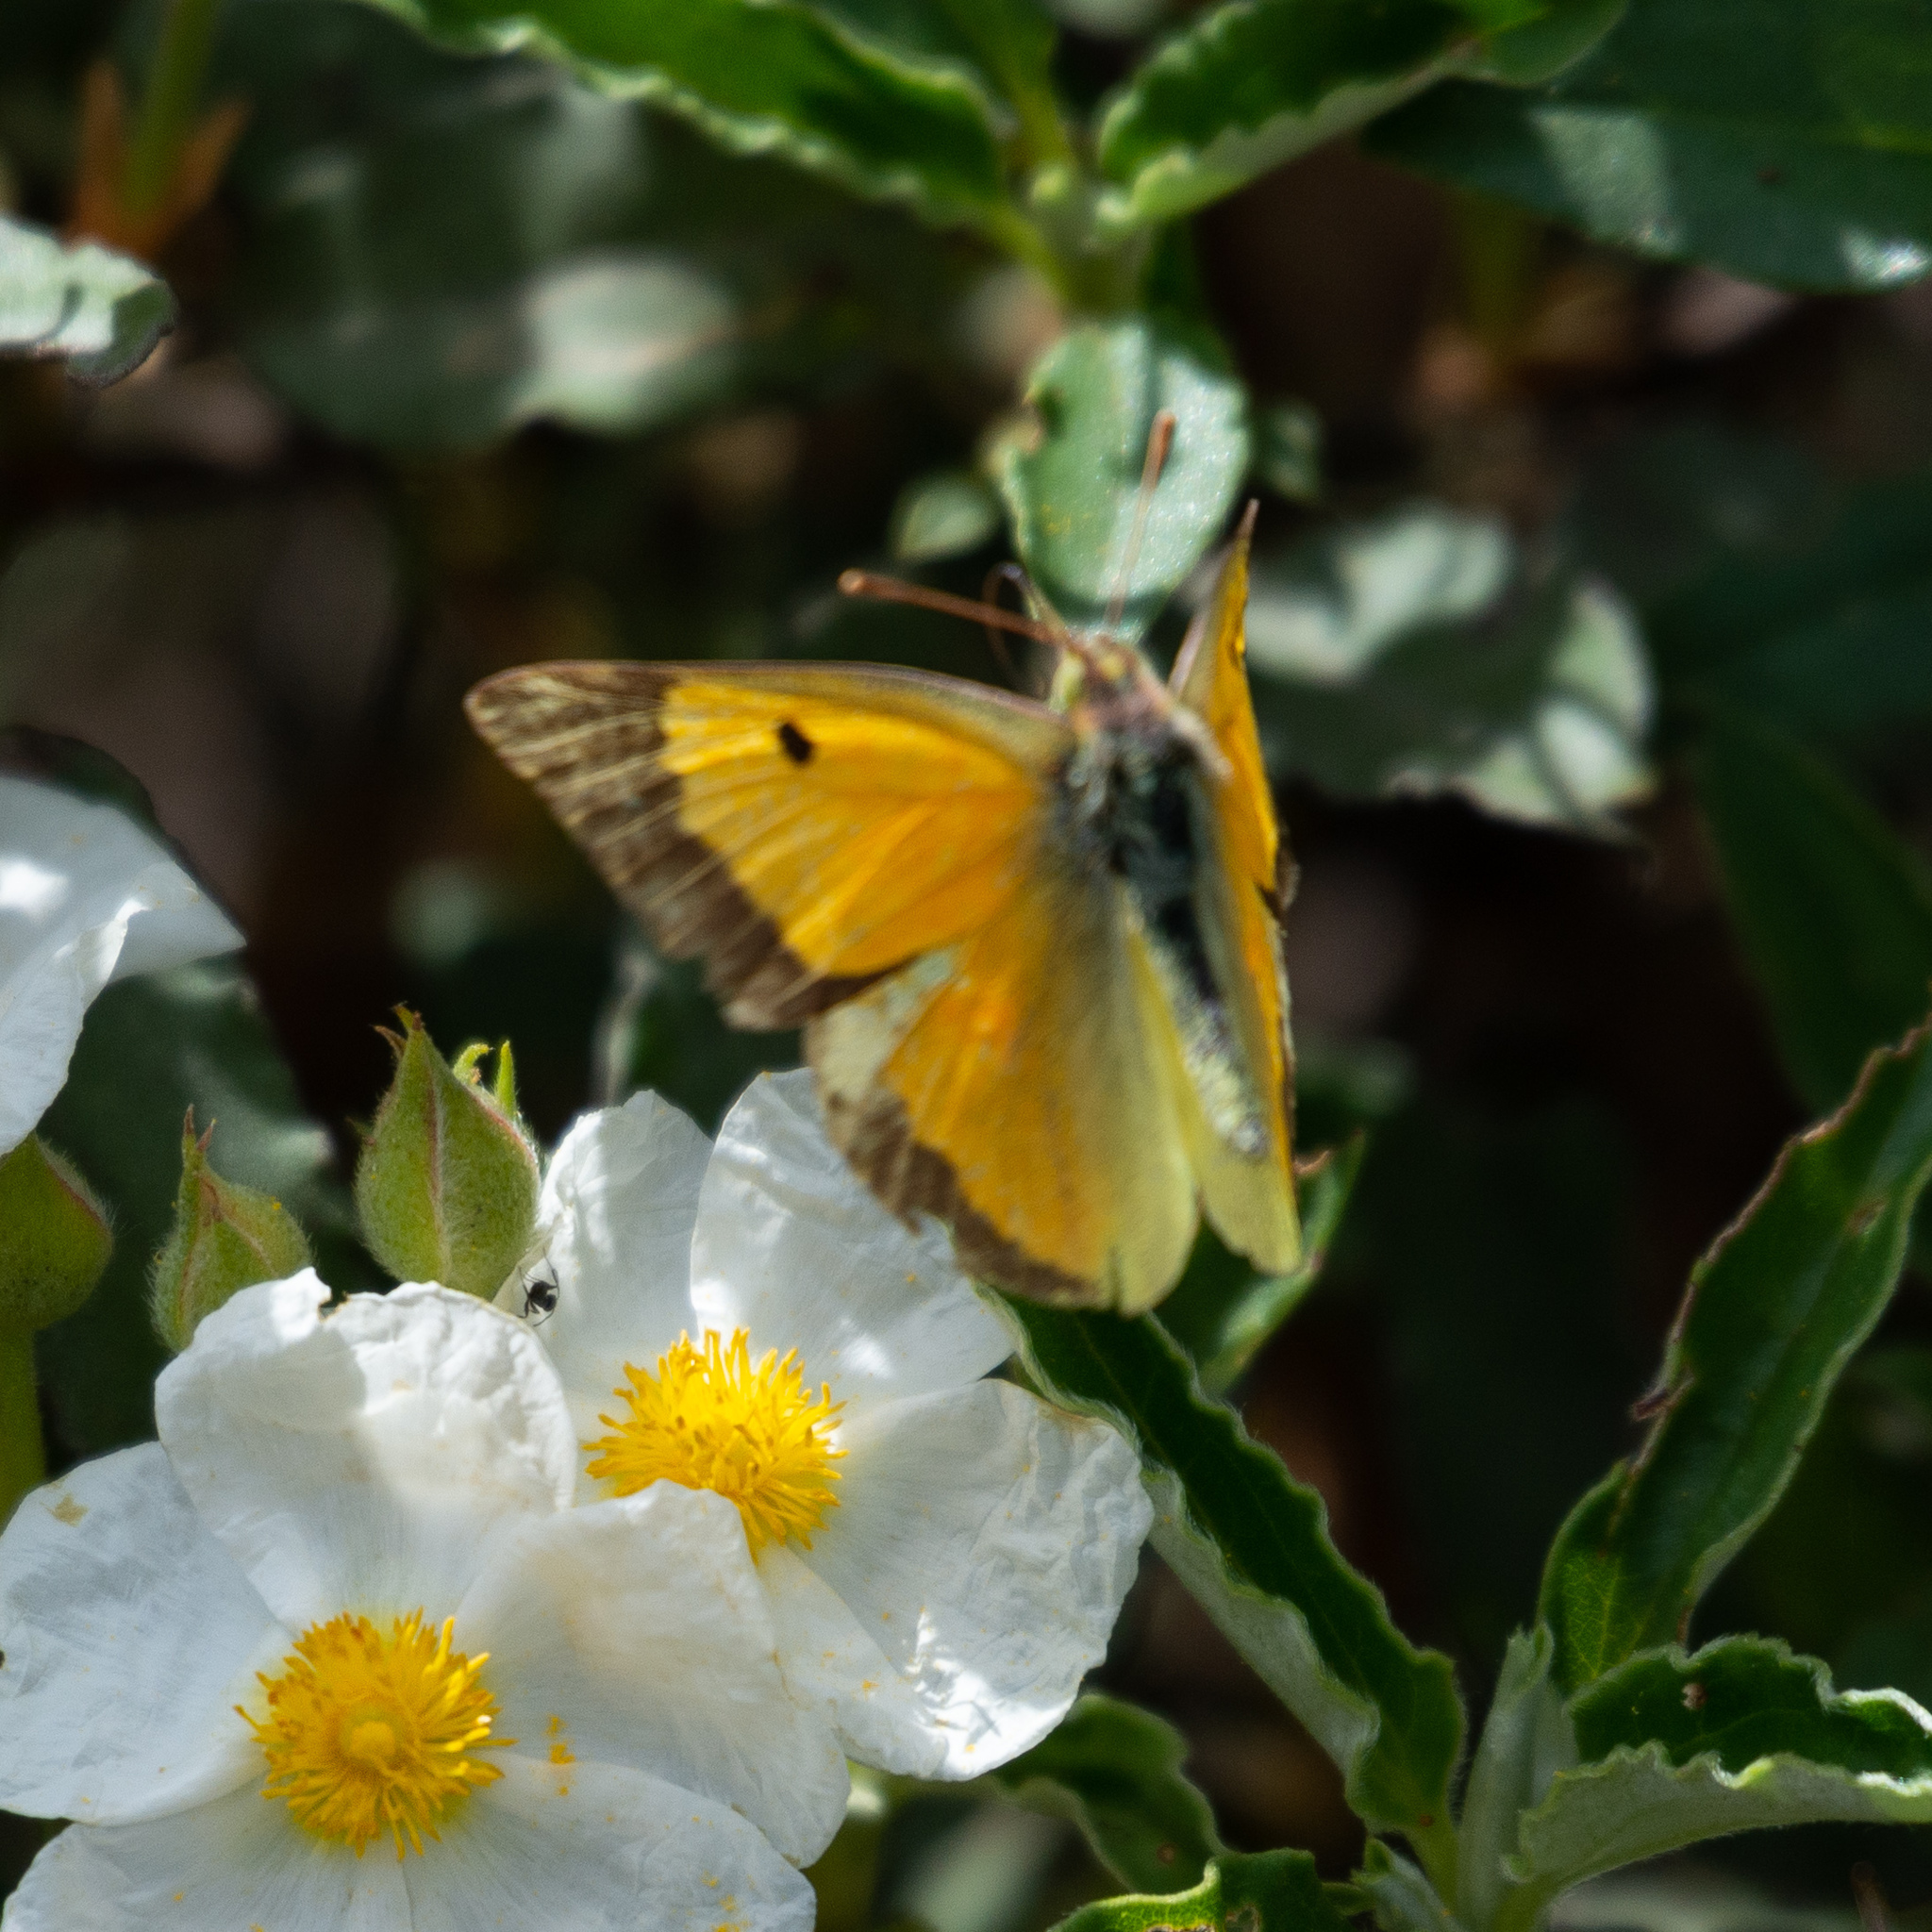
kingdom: Animalia
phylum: Arthropoda
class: Insecta
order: Lepidoptera
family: Pieridae
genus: Colias
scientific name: Colias croceus
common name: Clouded yellow
